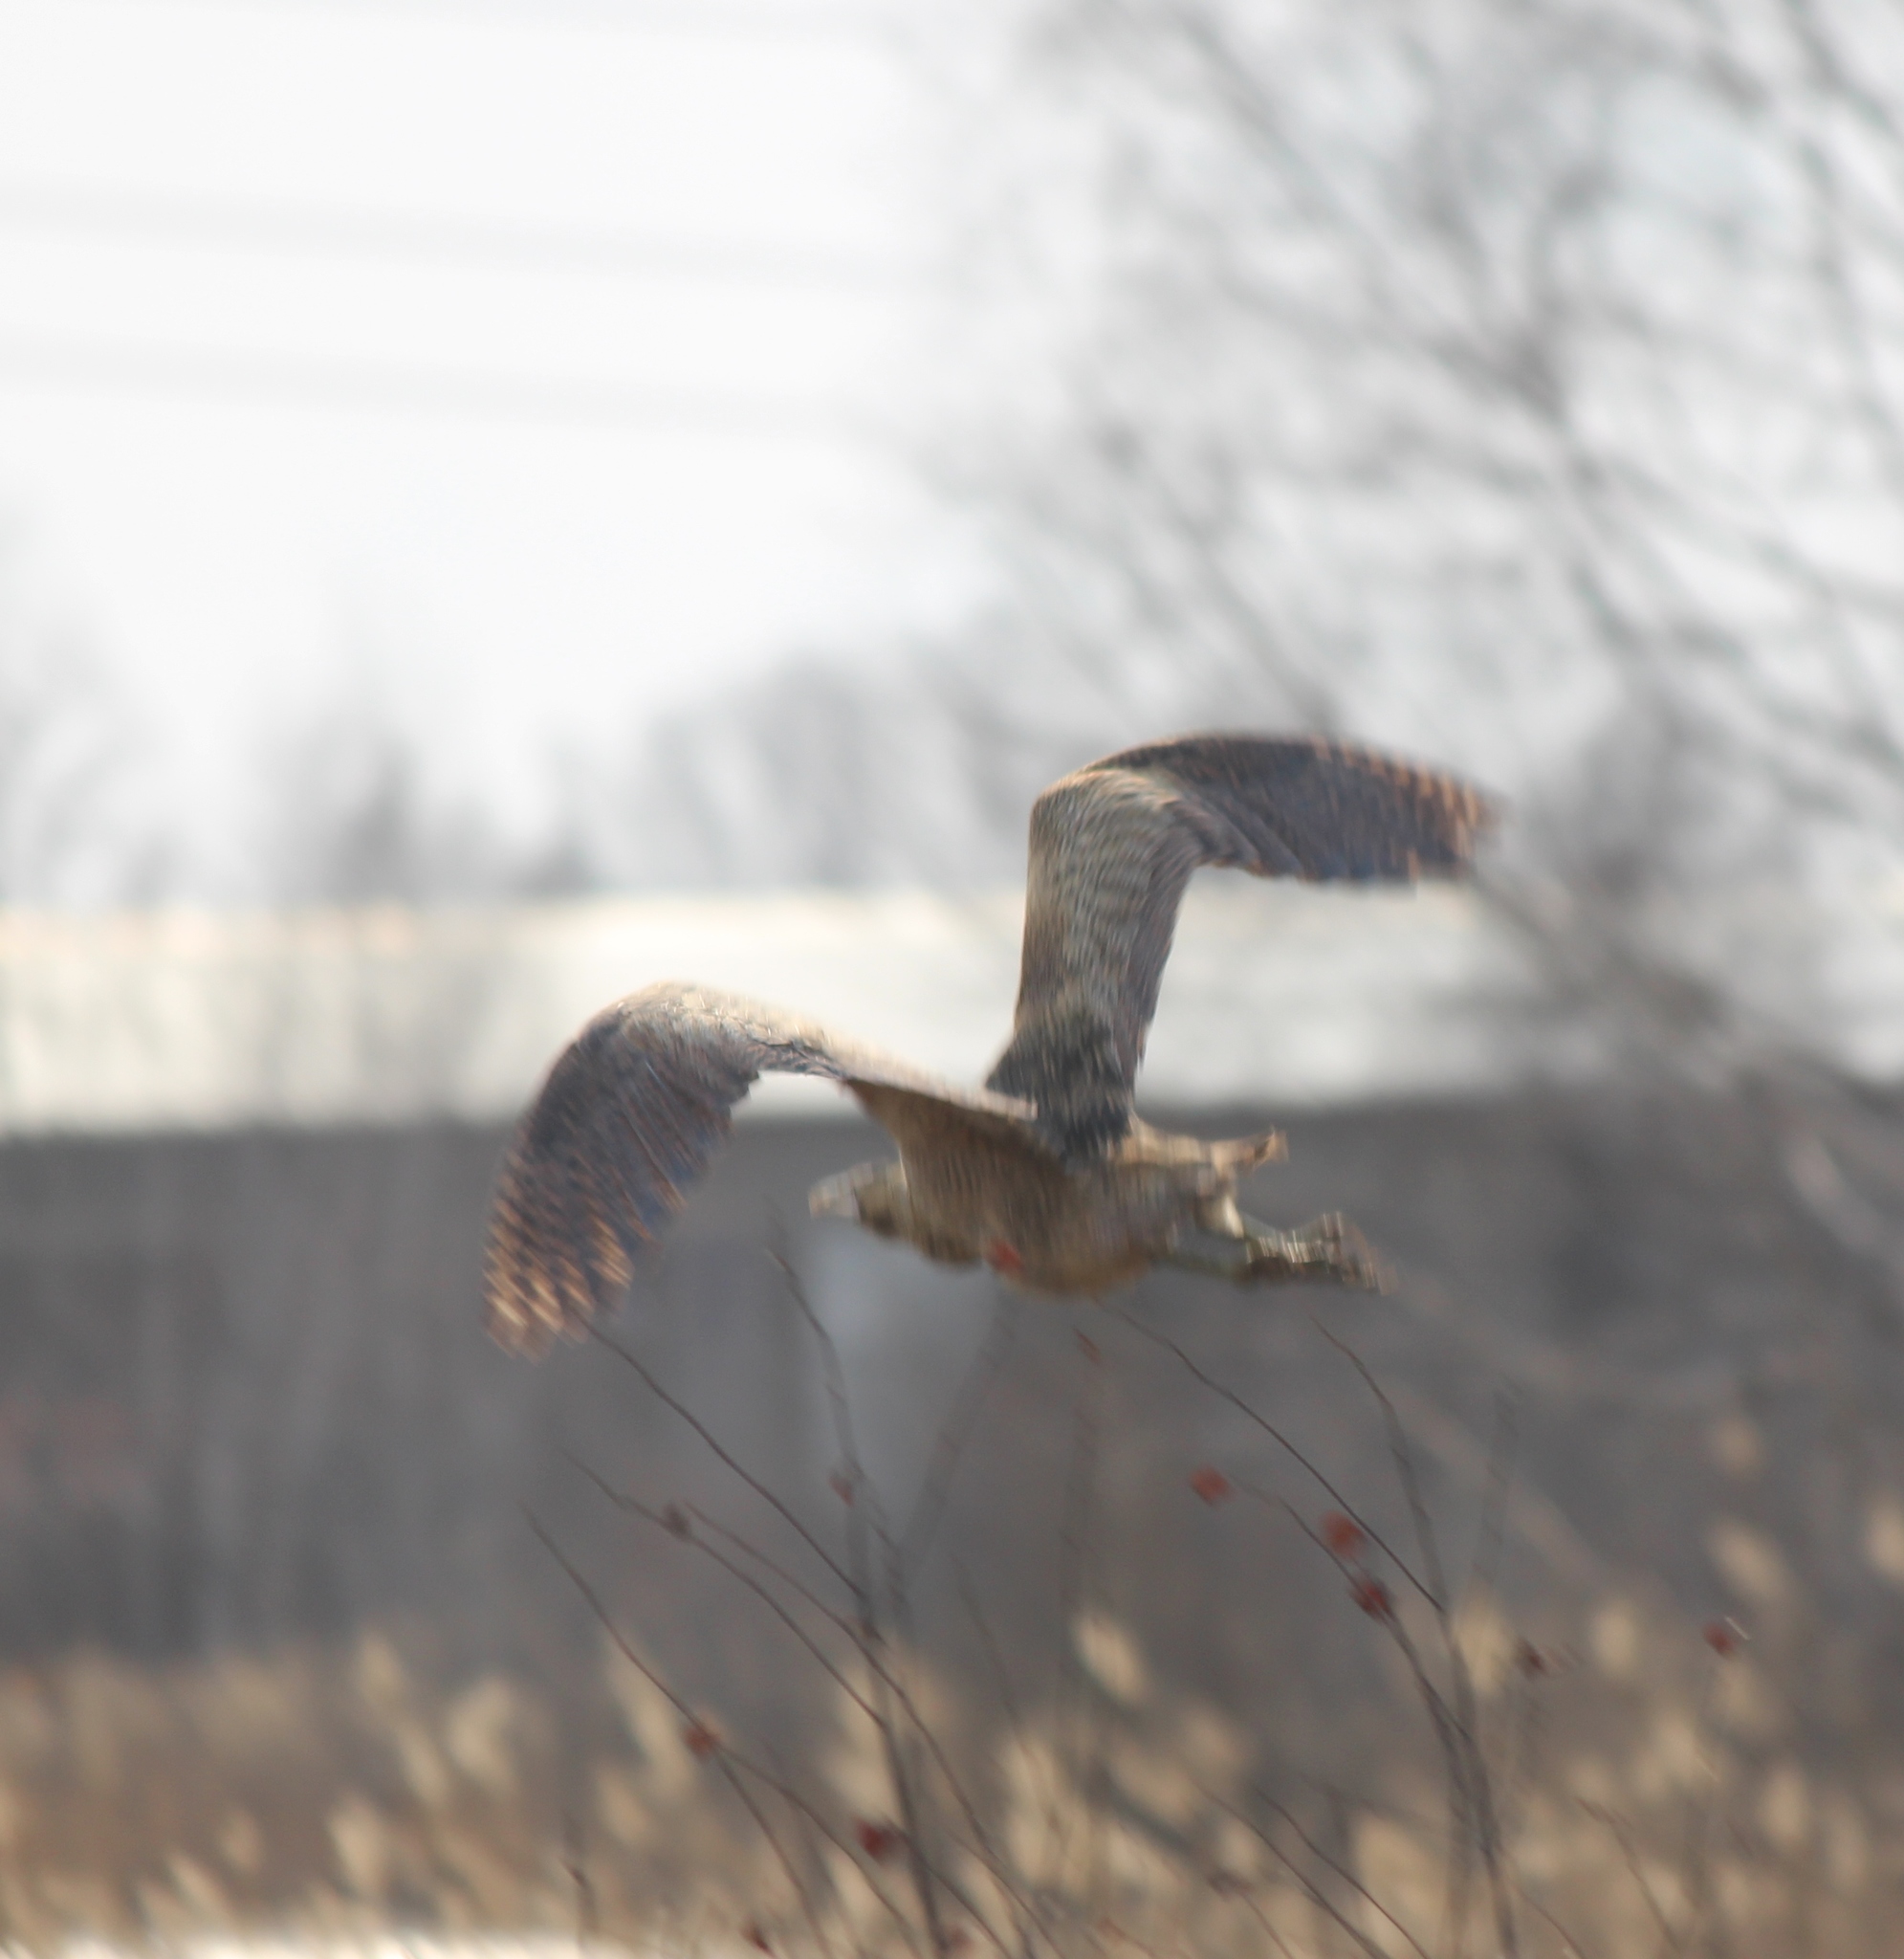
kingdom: Animalia
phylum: Chordata
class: Aves
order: Pelecaniformes
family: Ardeidae
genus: Botaurus
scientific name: Botaurus stellaris
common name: Eurasian bittern
